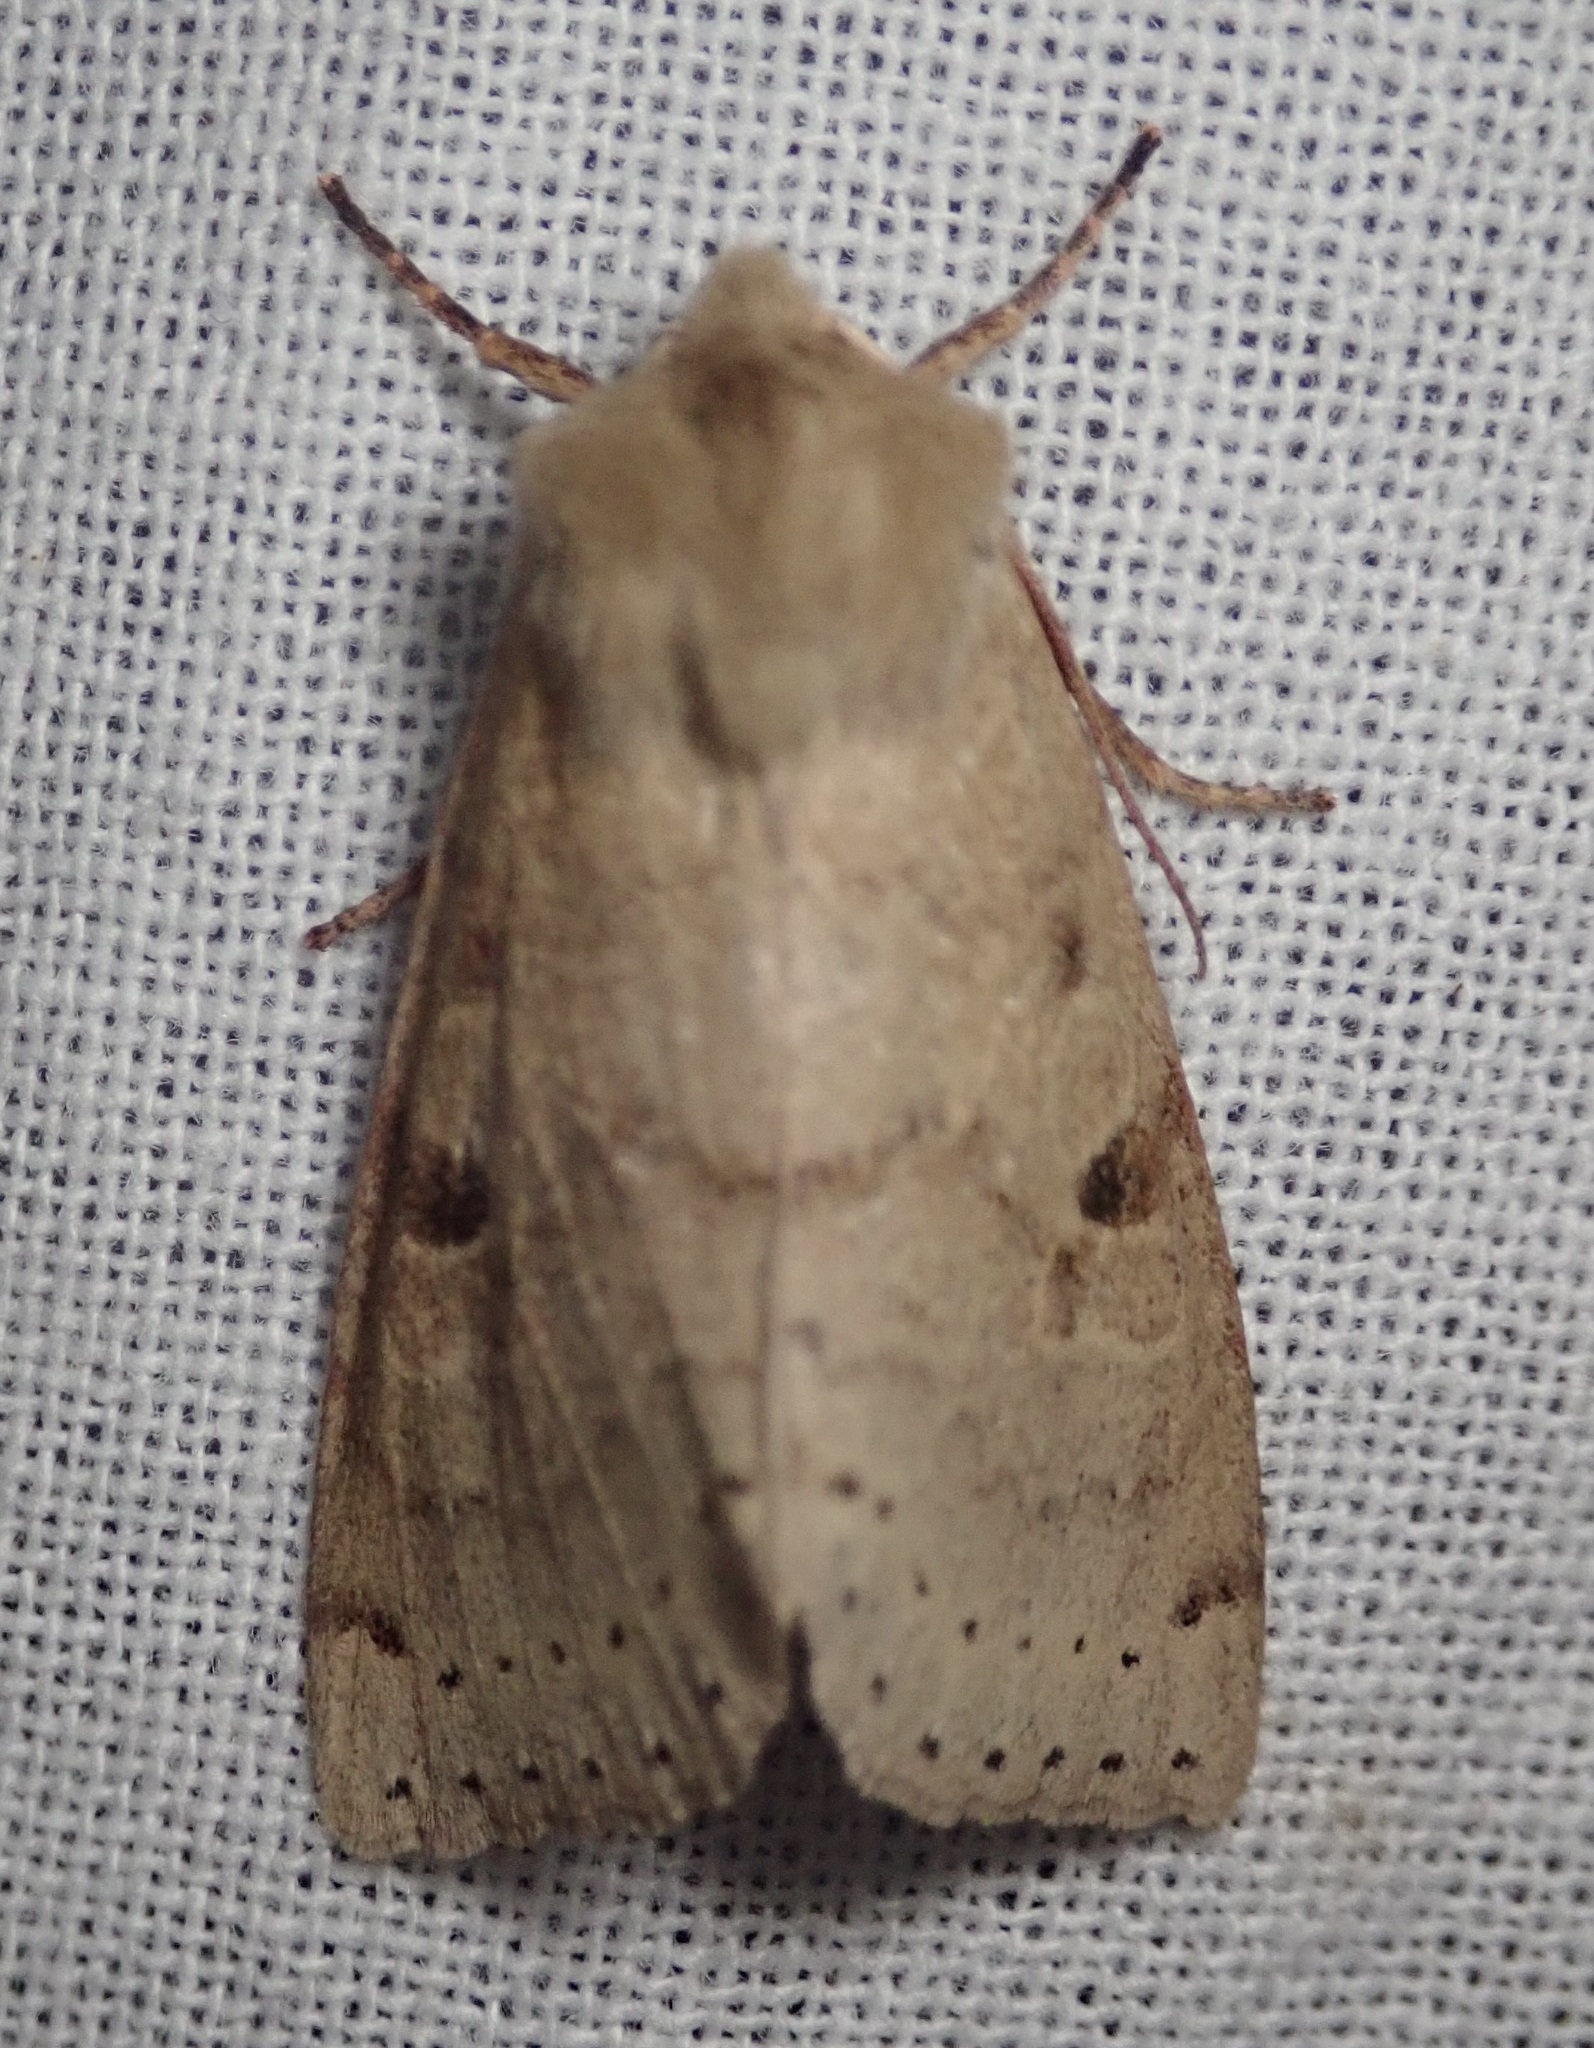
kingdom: Animalia
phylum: Arthropoda
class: Insecta
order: Lepidoptera
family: Noctuidae
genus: Orthosia
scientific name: Orthosia arthrolita
